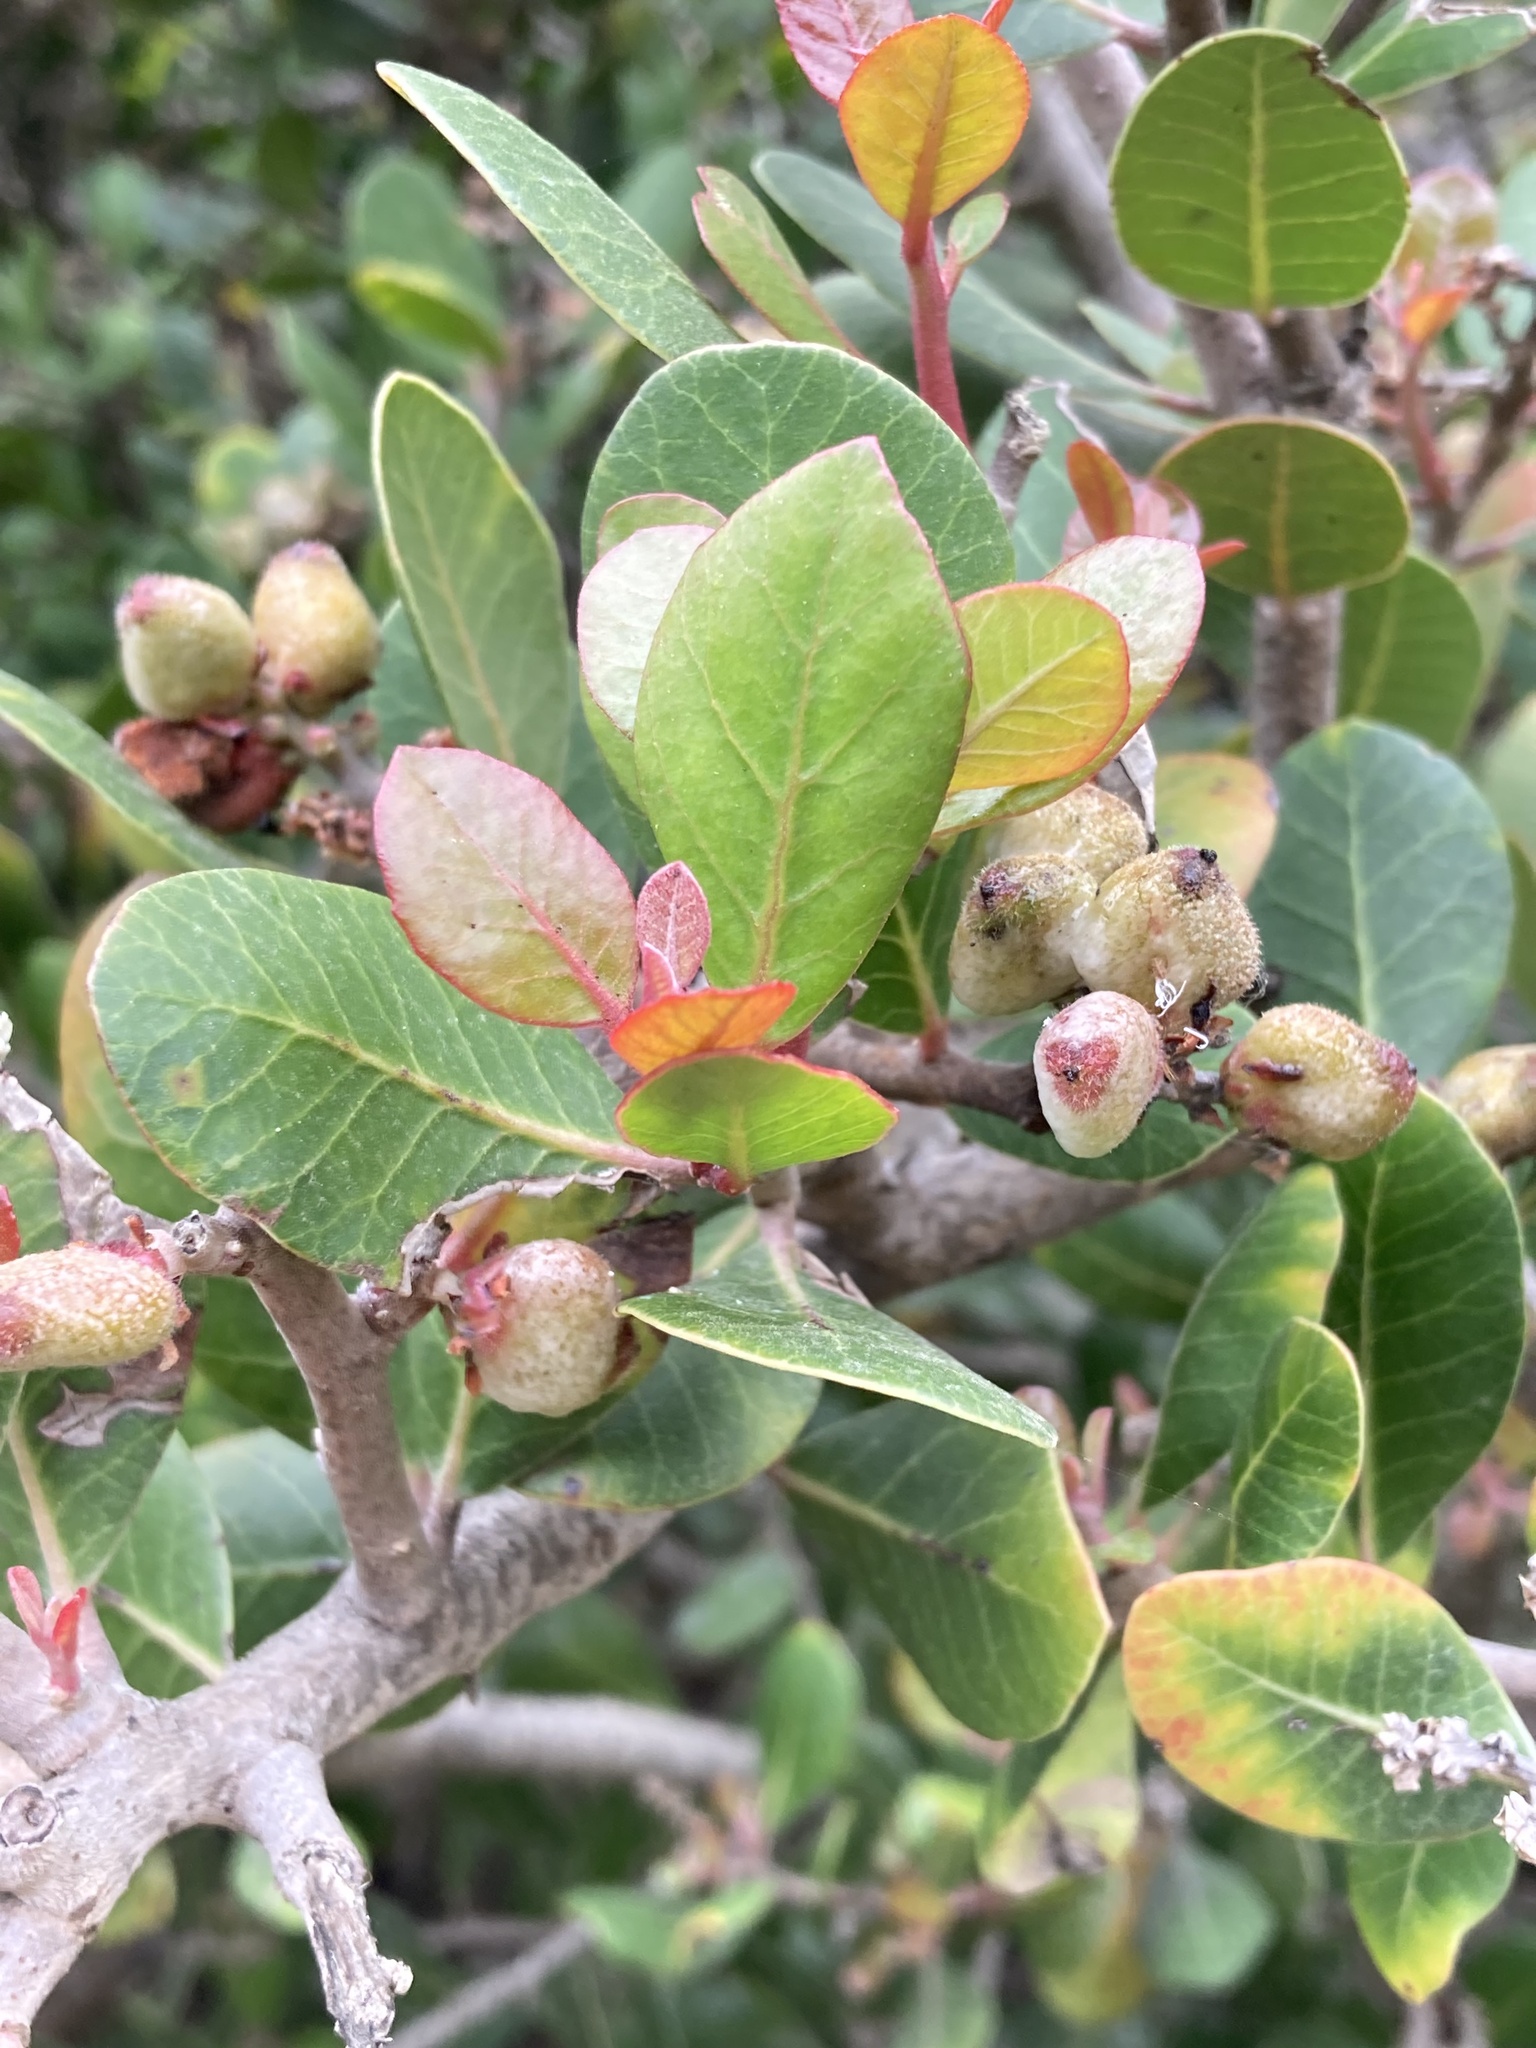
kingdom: Plantae
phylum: Tracheophyta
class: Magnoliopsida
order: Sapindales
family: Anacardiaceae
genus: Rhus
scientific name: Rhus integrifolia
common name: Lemonade sumac
